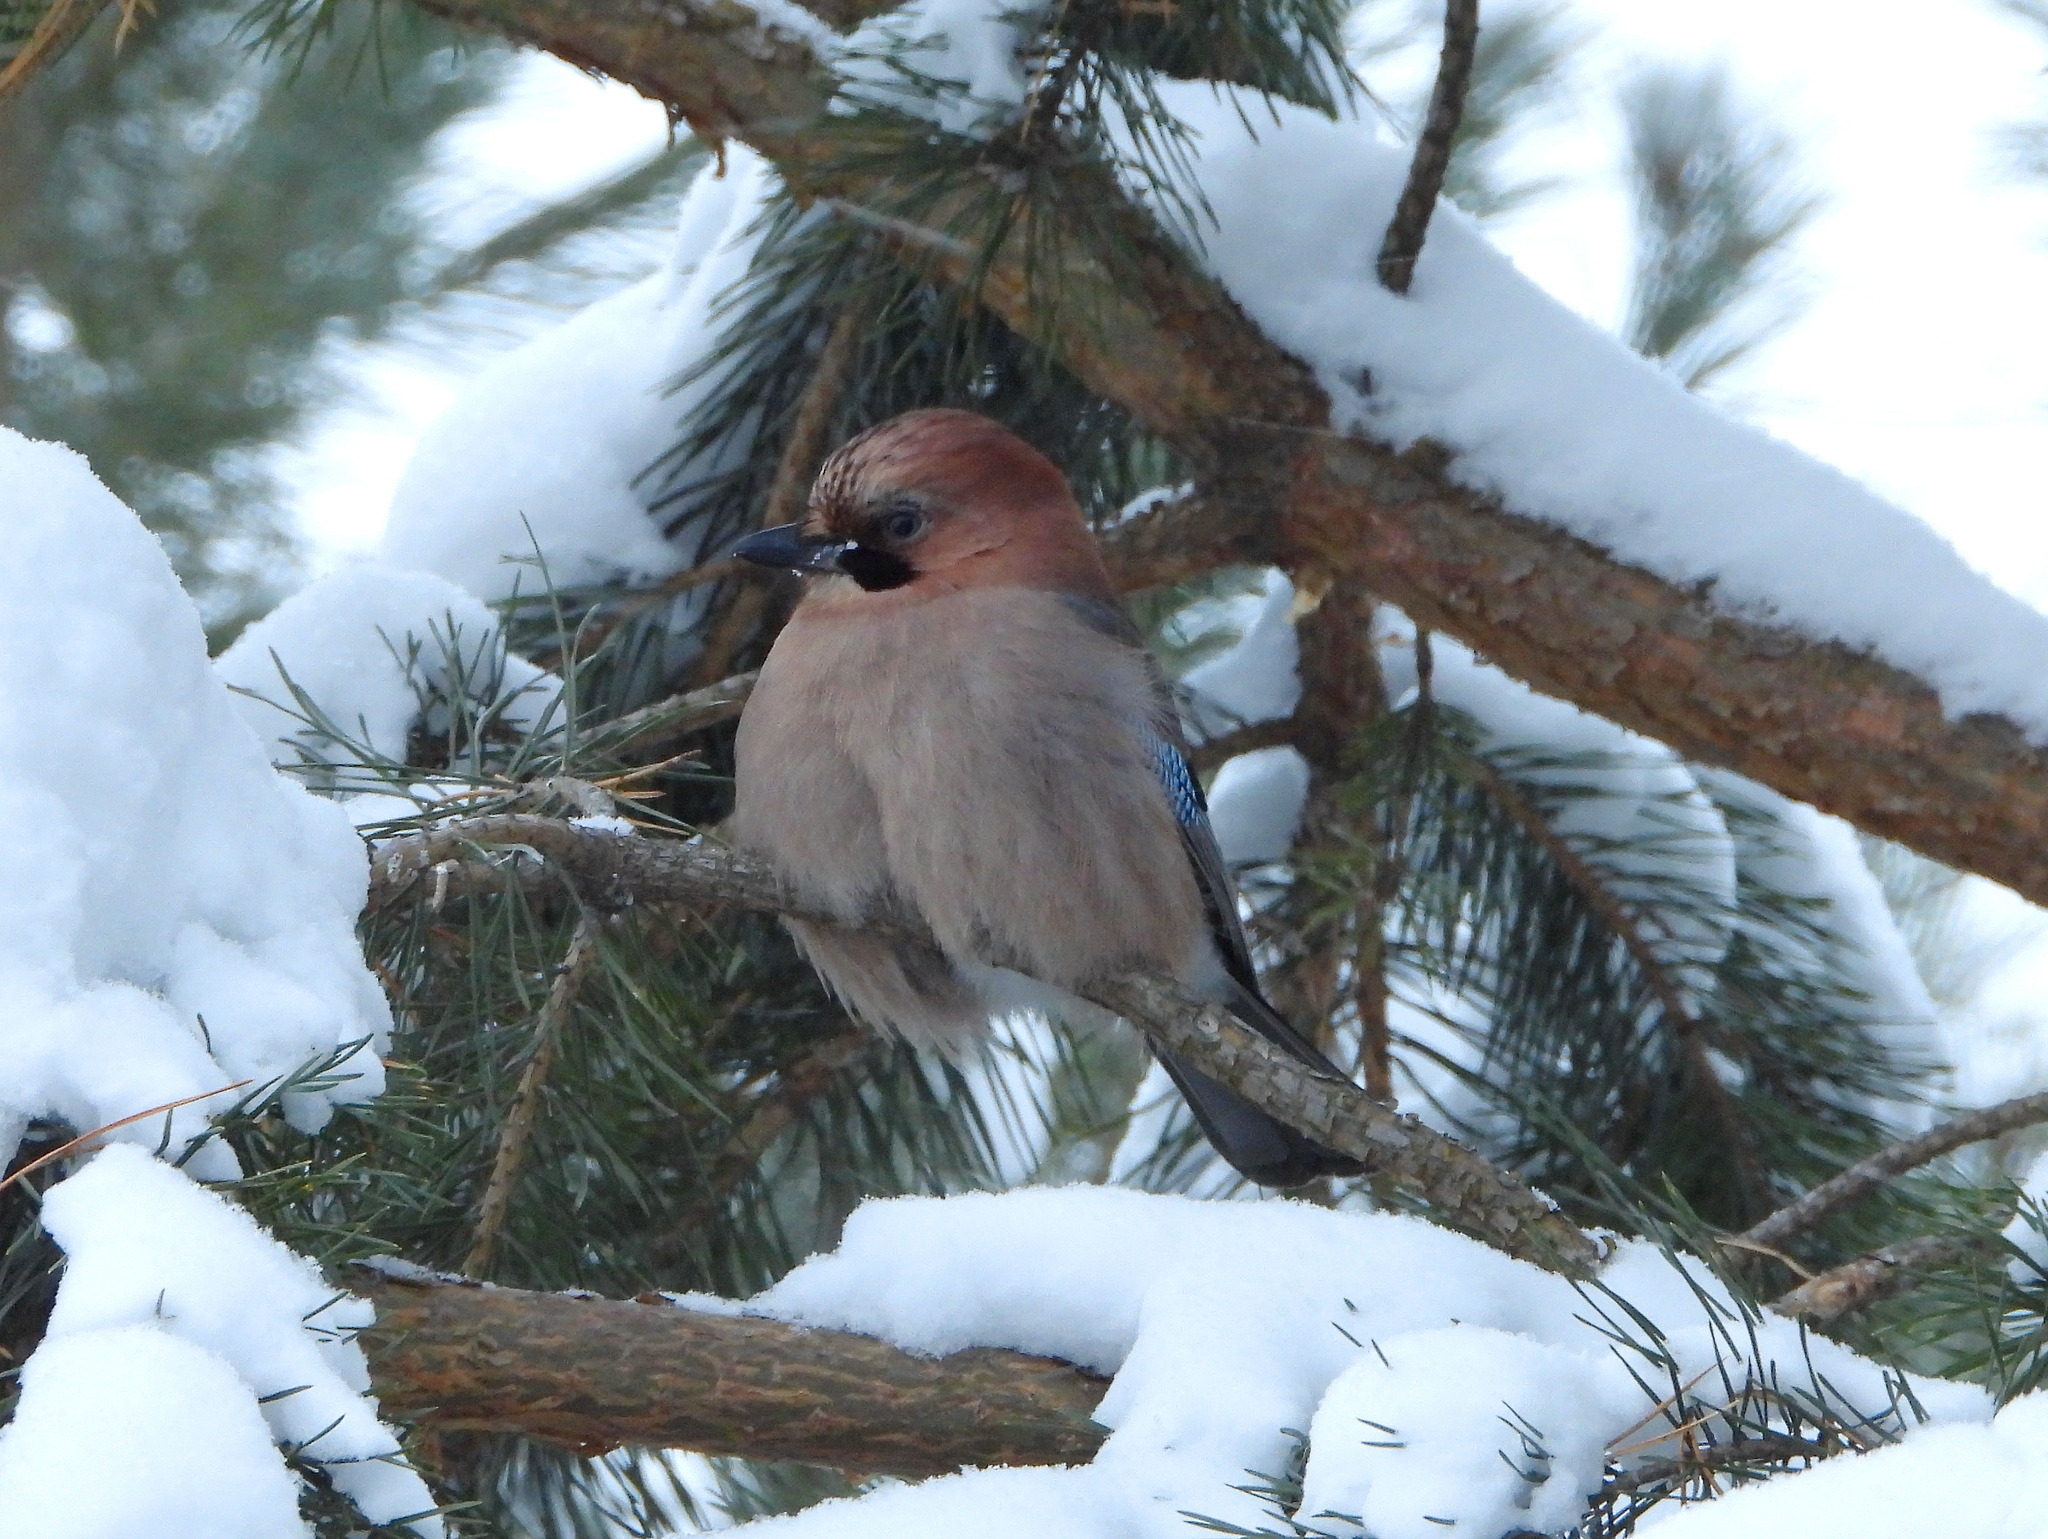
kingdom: Animalia
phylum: Chordata
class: Aves
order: Passeriformes
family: Corvidae
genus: Garrulus
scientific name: Garrulus glandarius
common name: Eurasian jay
